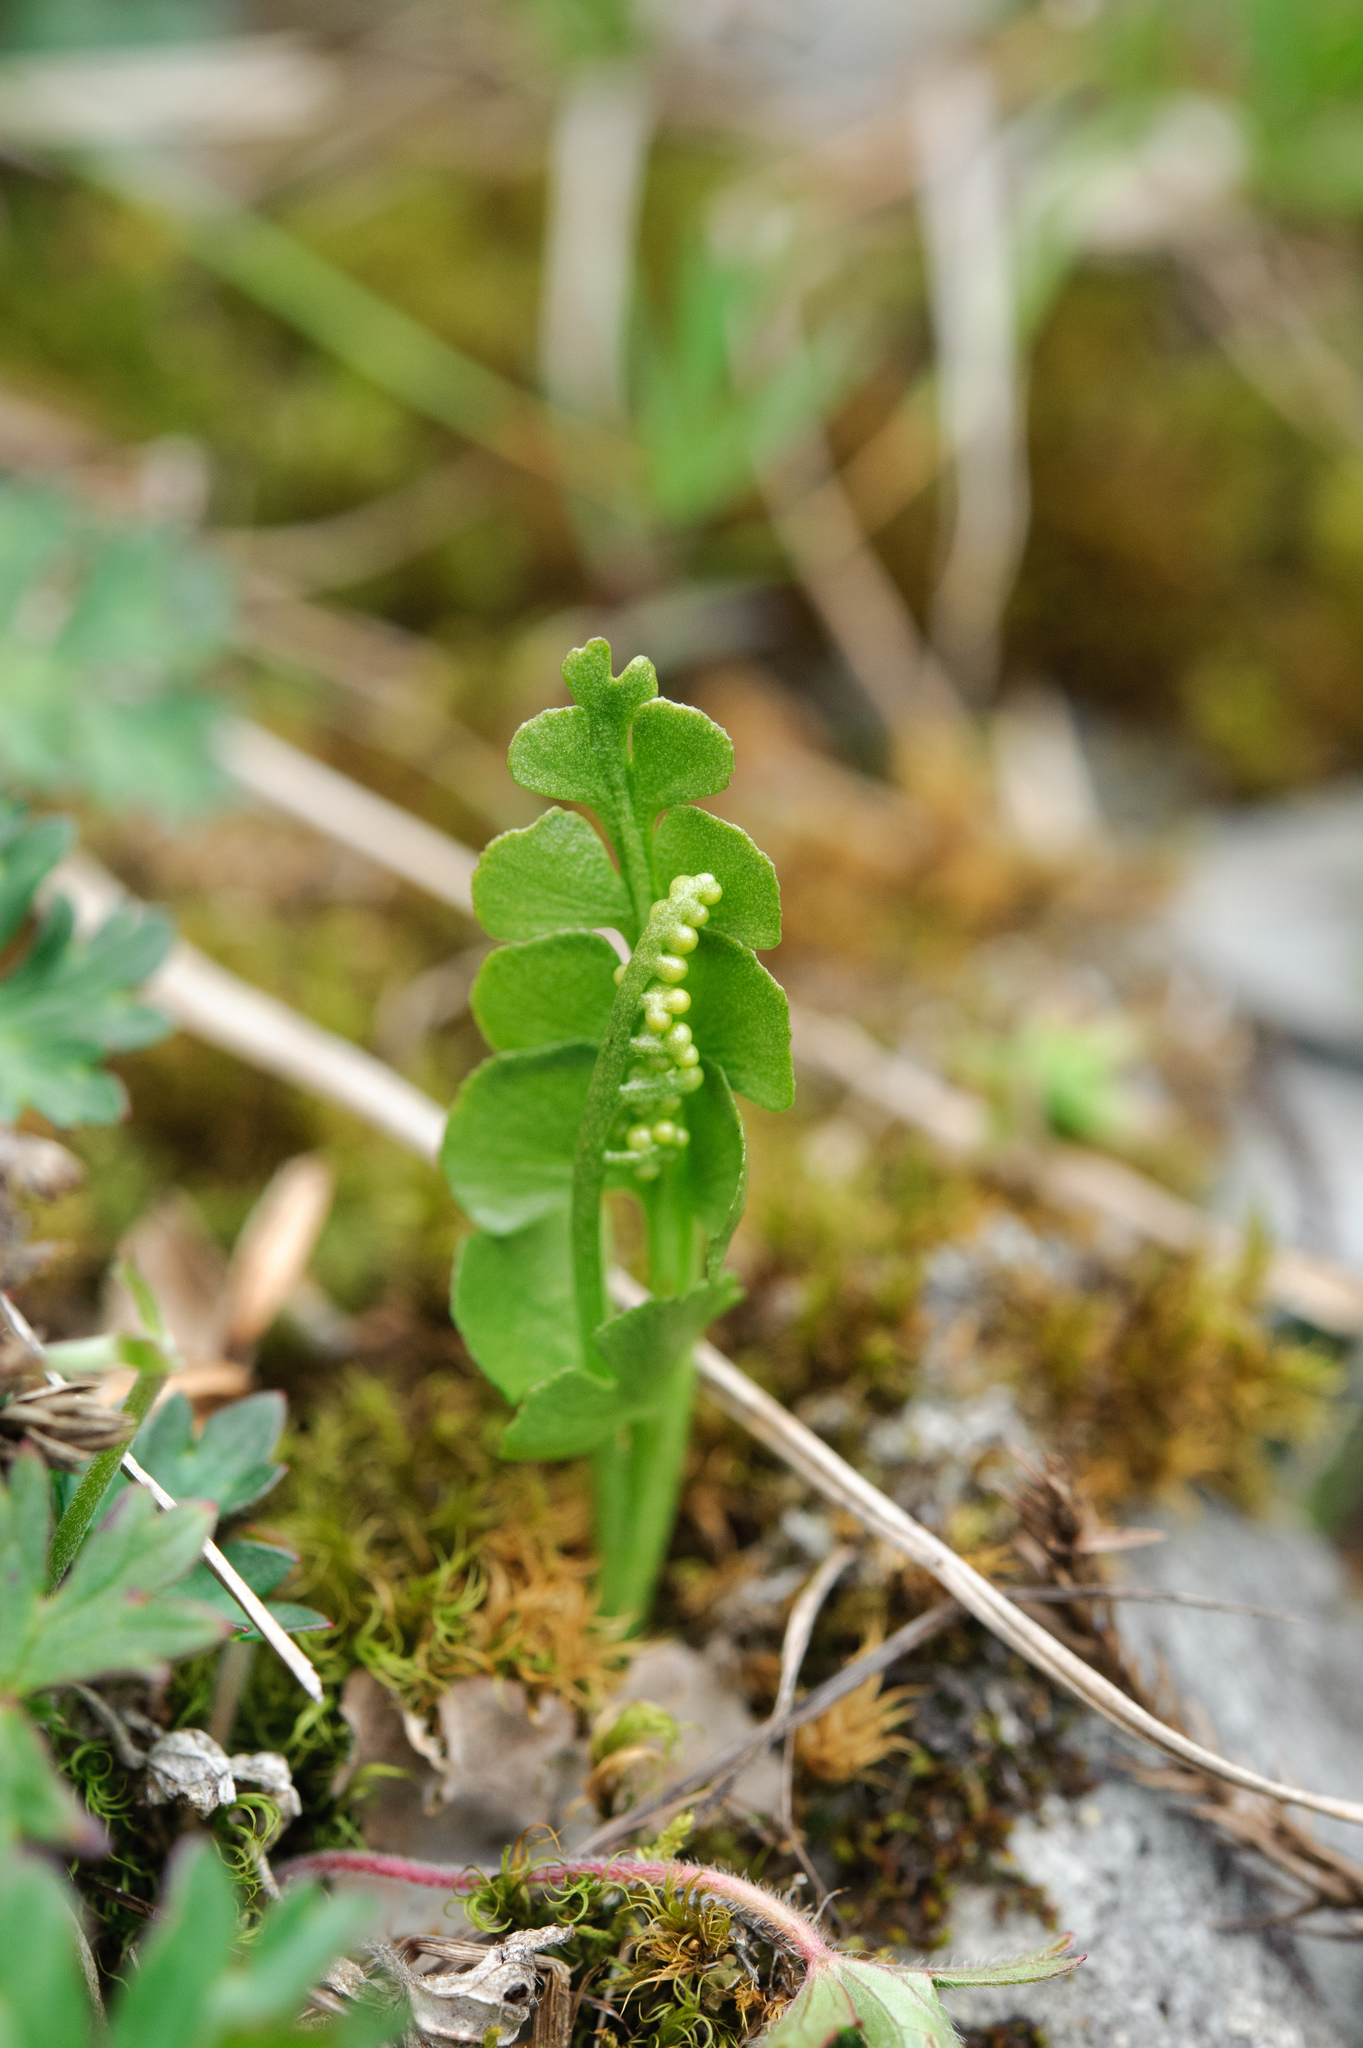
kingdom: Plantae
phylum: Tracheophyta
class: Polypodiopsida
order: Ophioglossales
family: Ophioglossaceae
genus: Botrychium
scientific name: Botrychium lunaria
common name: Moonwort
